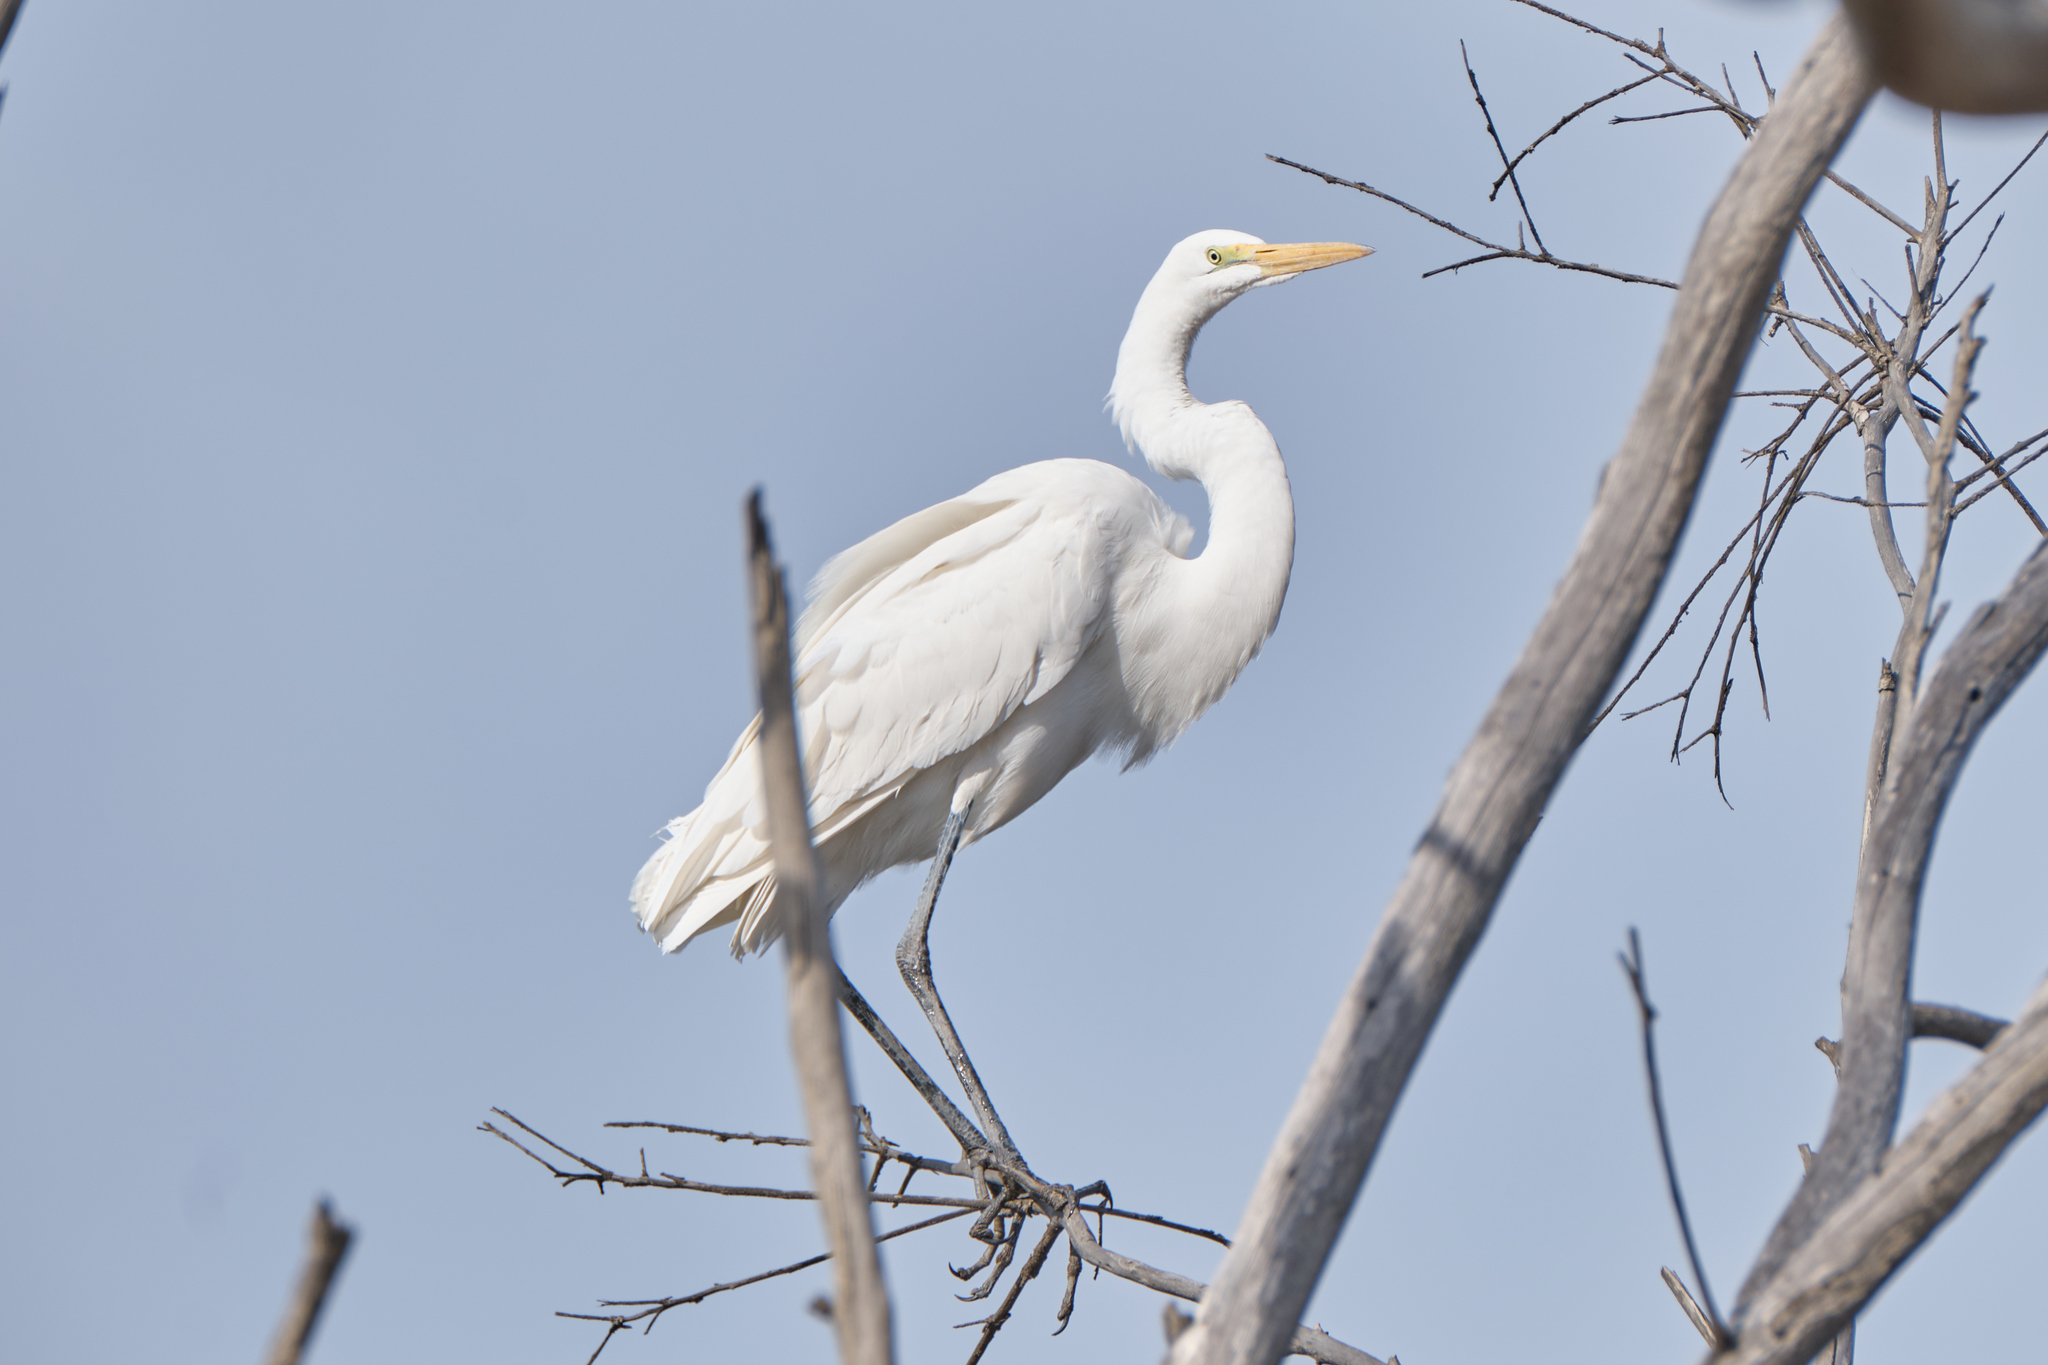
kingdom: Animalia
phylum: Chordata
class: Aves
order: Pelecaniformes
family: Ardeidae
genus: Ardea
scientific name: Ardea alba
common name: Great egret
